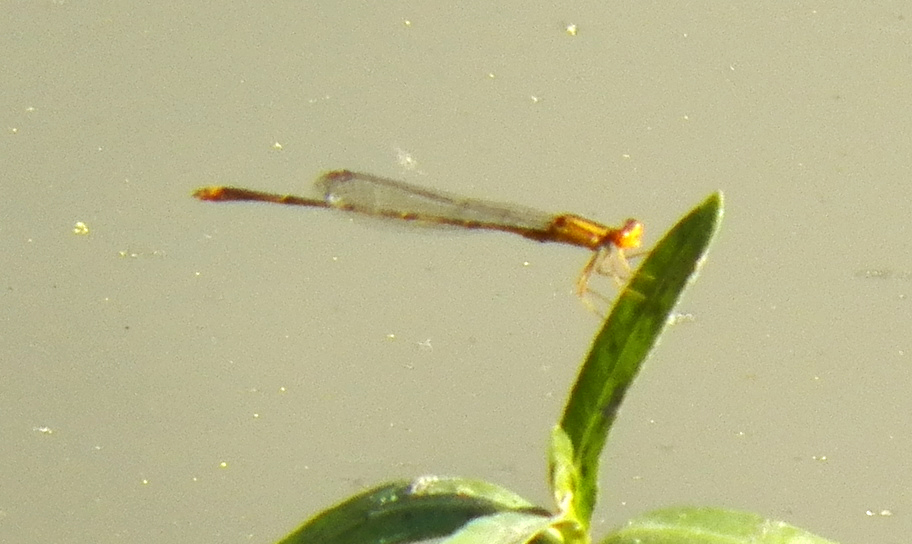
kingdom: Animalia
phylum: Arthropoda
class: Insecta
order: Odonata
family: Coenagrionidae
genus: Enallagma
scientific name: Enallagma signatum
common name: Orange bluet
